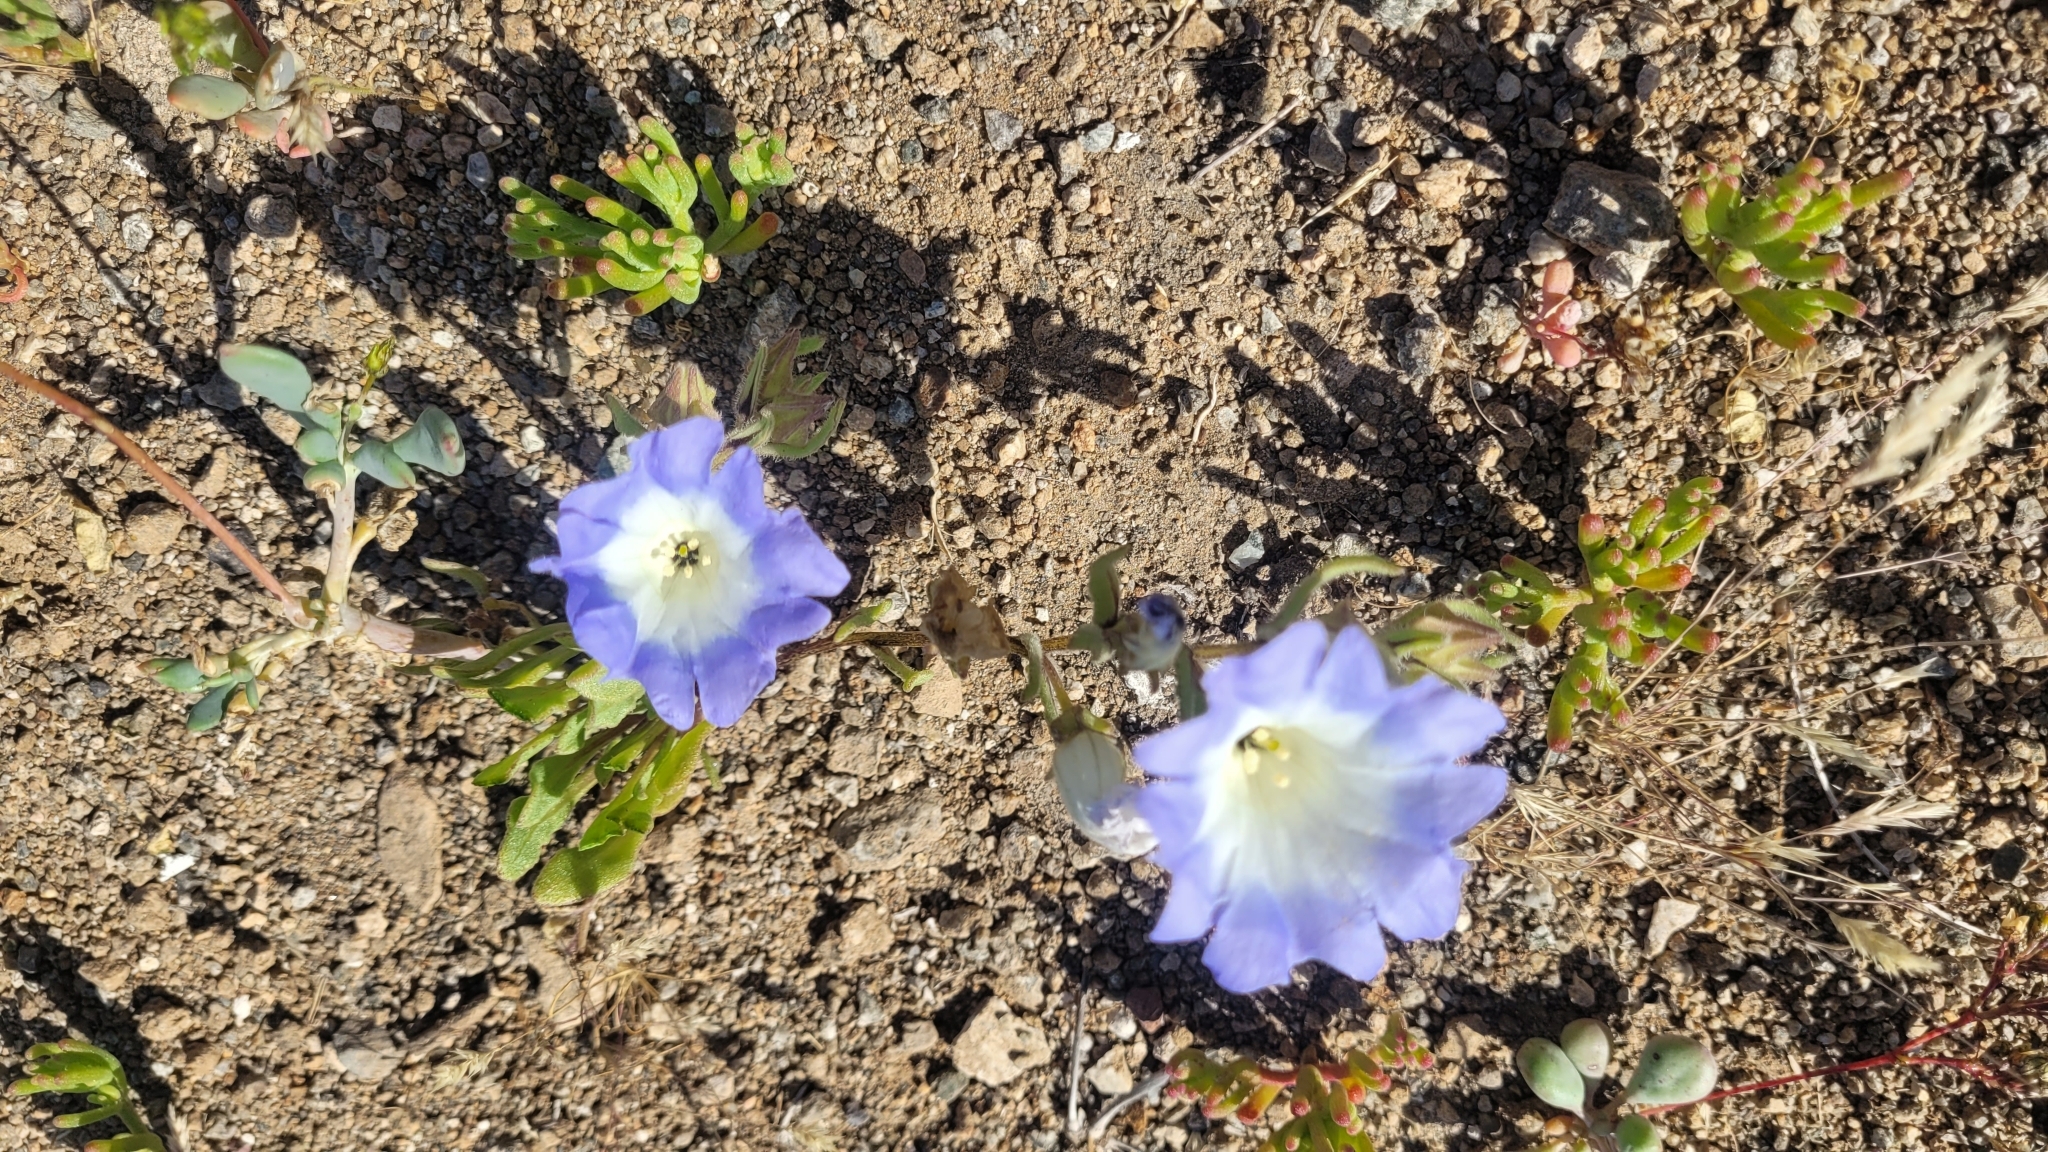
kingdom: Plantae
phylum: Tracheophyta
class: Magnoliopsida
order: Solanales
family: Solanaceae
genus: Nolana
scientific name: Nolana baccata
